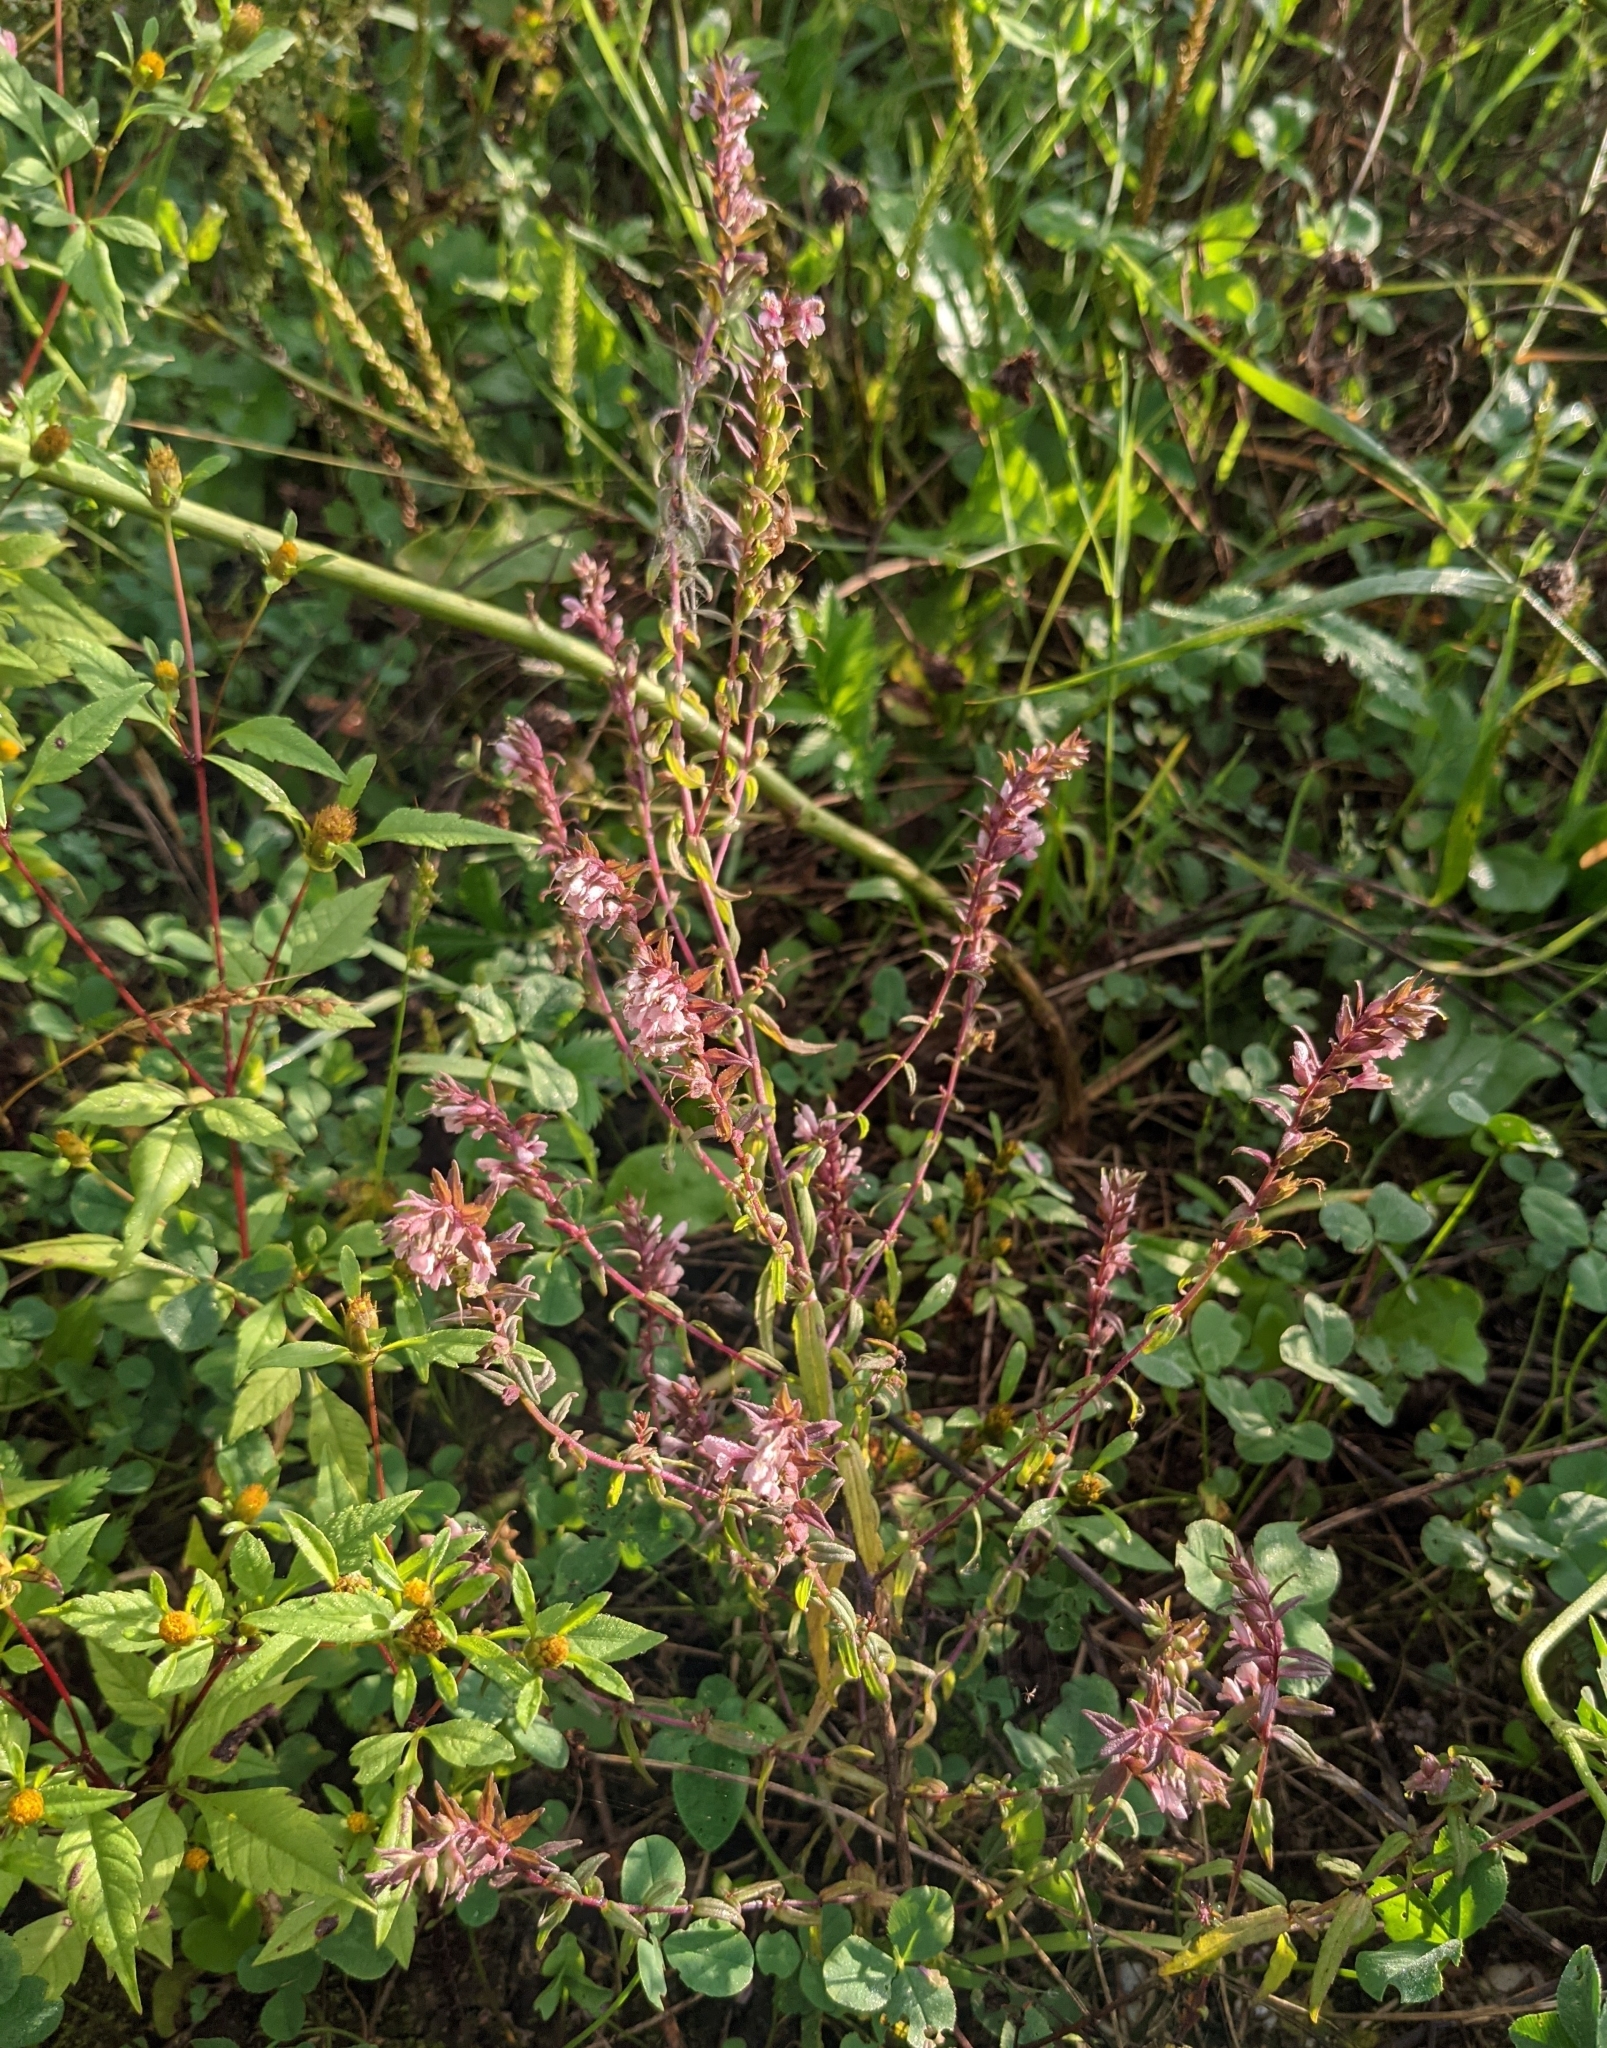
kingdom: Plantae
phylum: Tracheophyta
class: Magnoliopsida
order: Lamiales
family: Orobanchaceae
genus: Odontites
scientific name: Odontites vulgaris
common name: Broomrape
